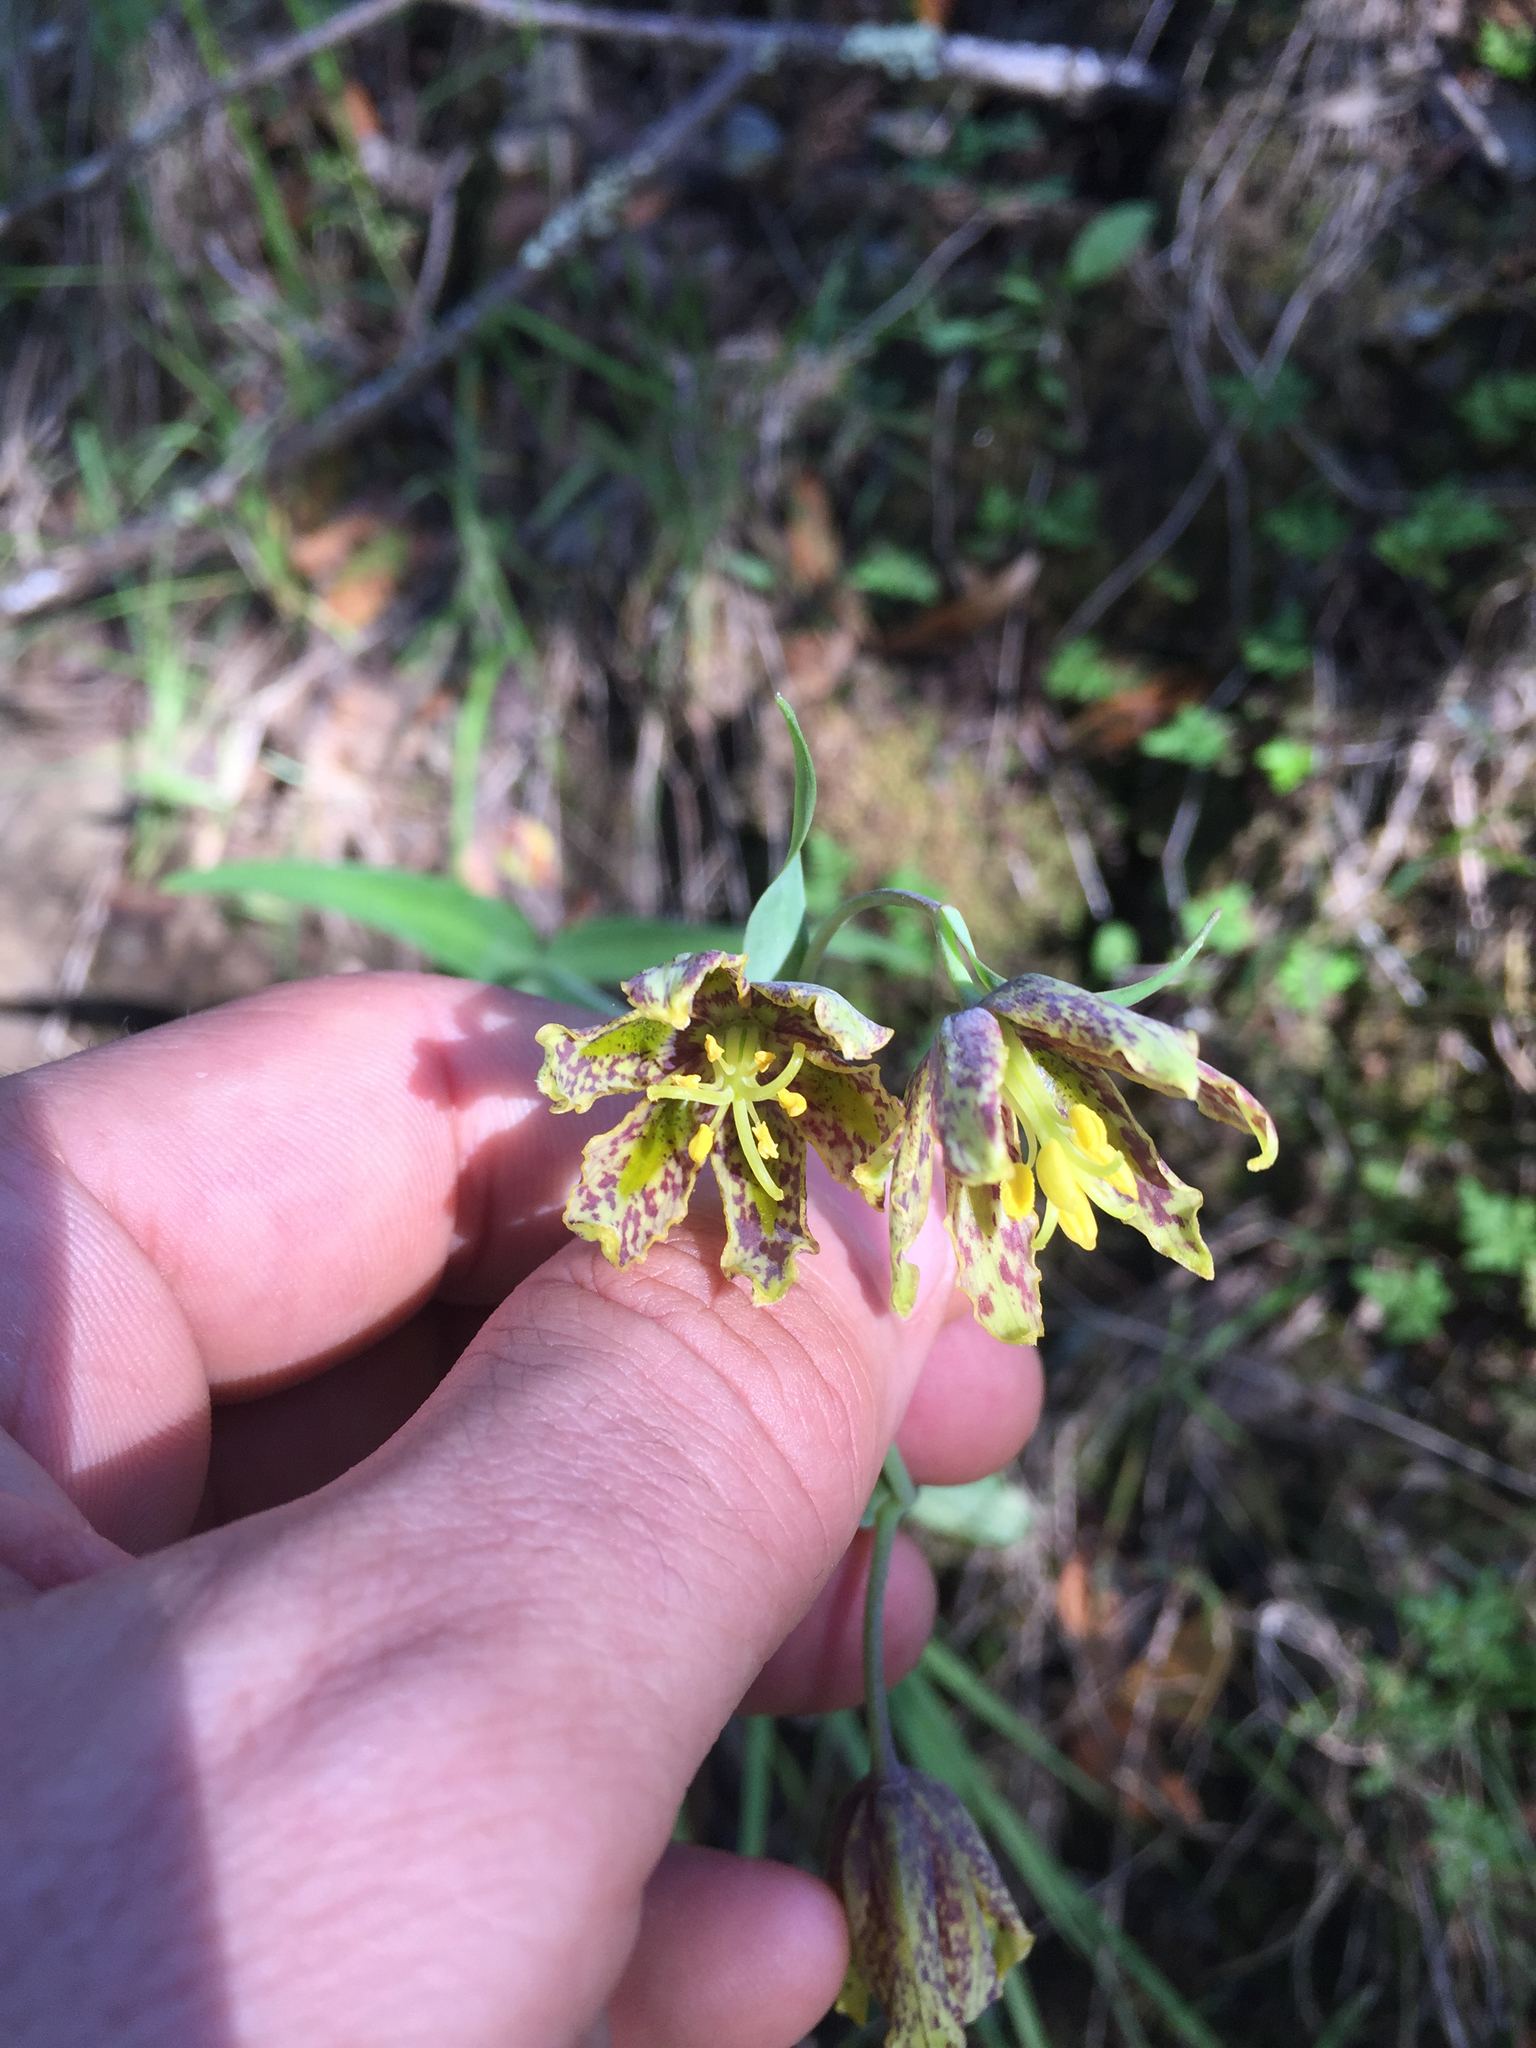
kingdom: Plantae
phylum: Tracheophyta
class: Liliopsida
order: Liliales
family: Liliaceae
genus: Fritillaria
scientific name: Fritillaria affinis
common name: Ojai fritillary
